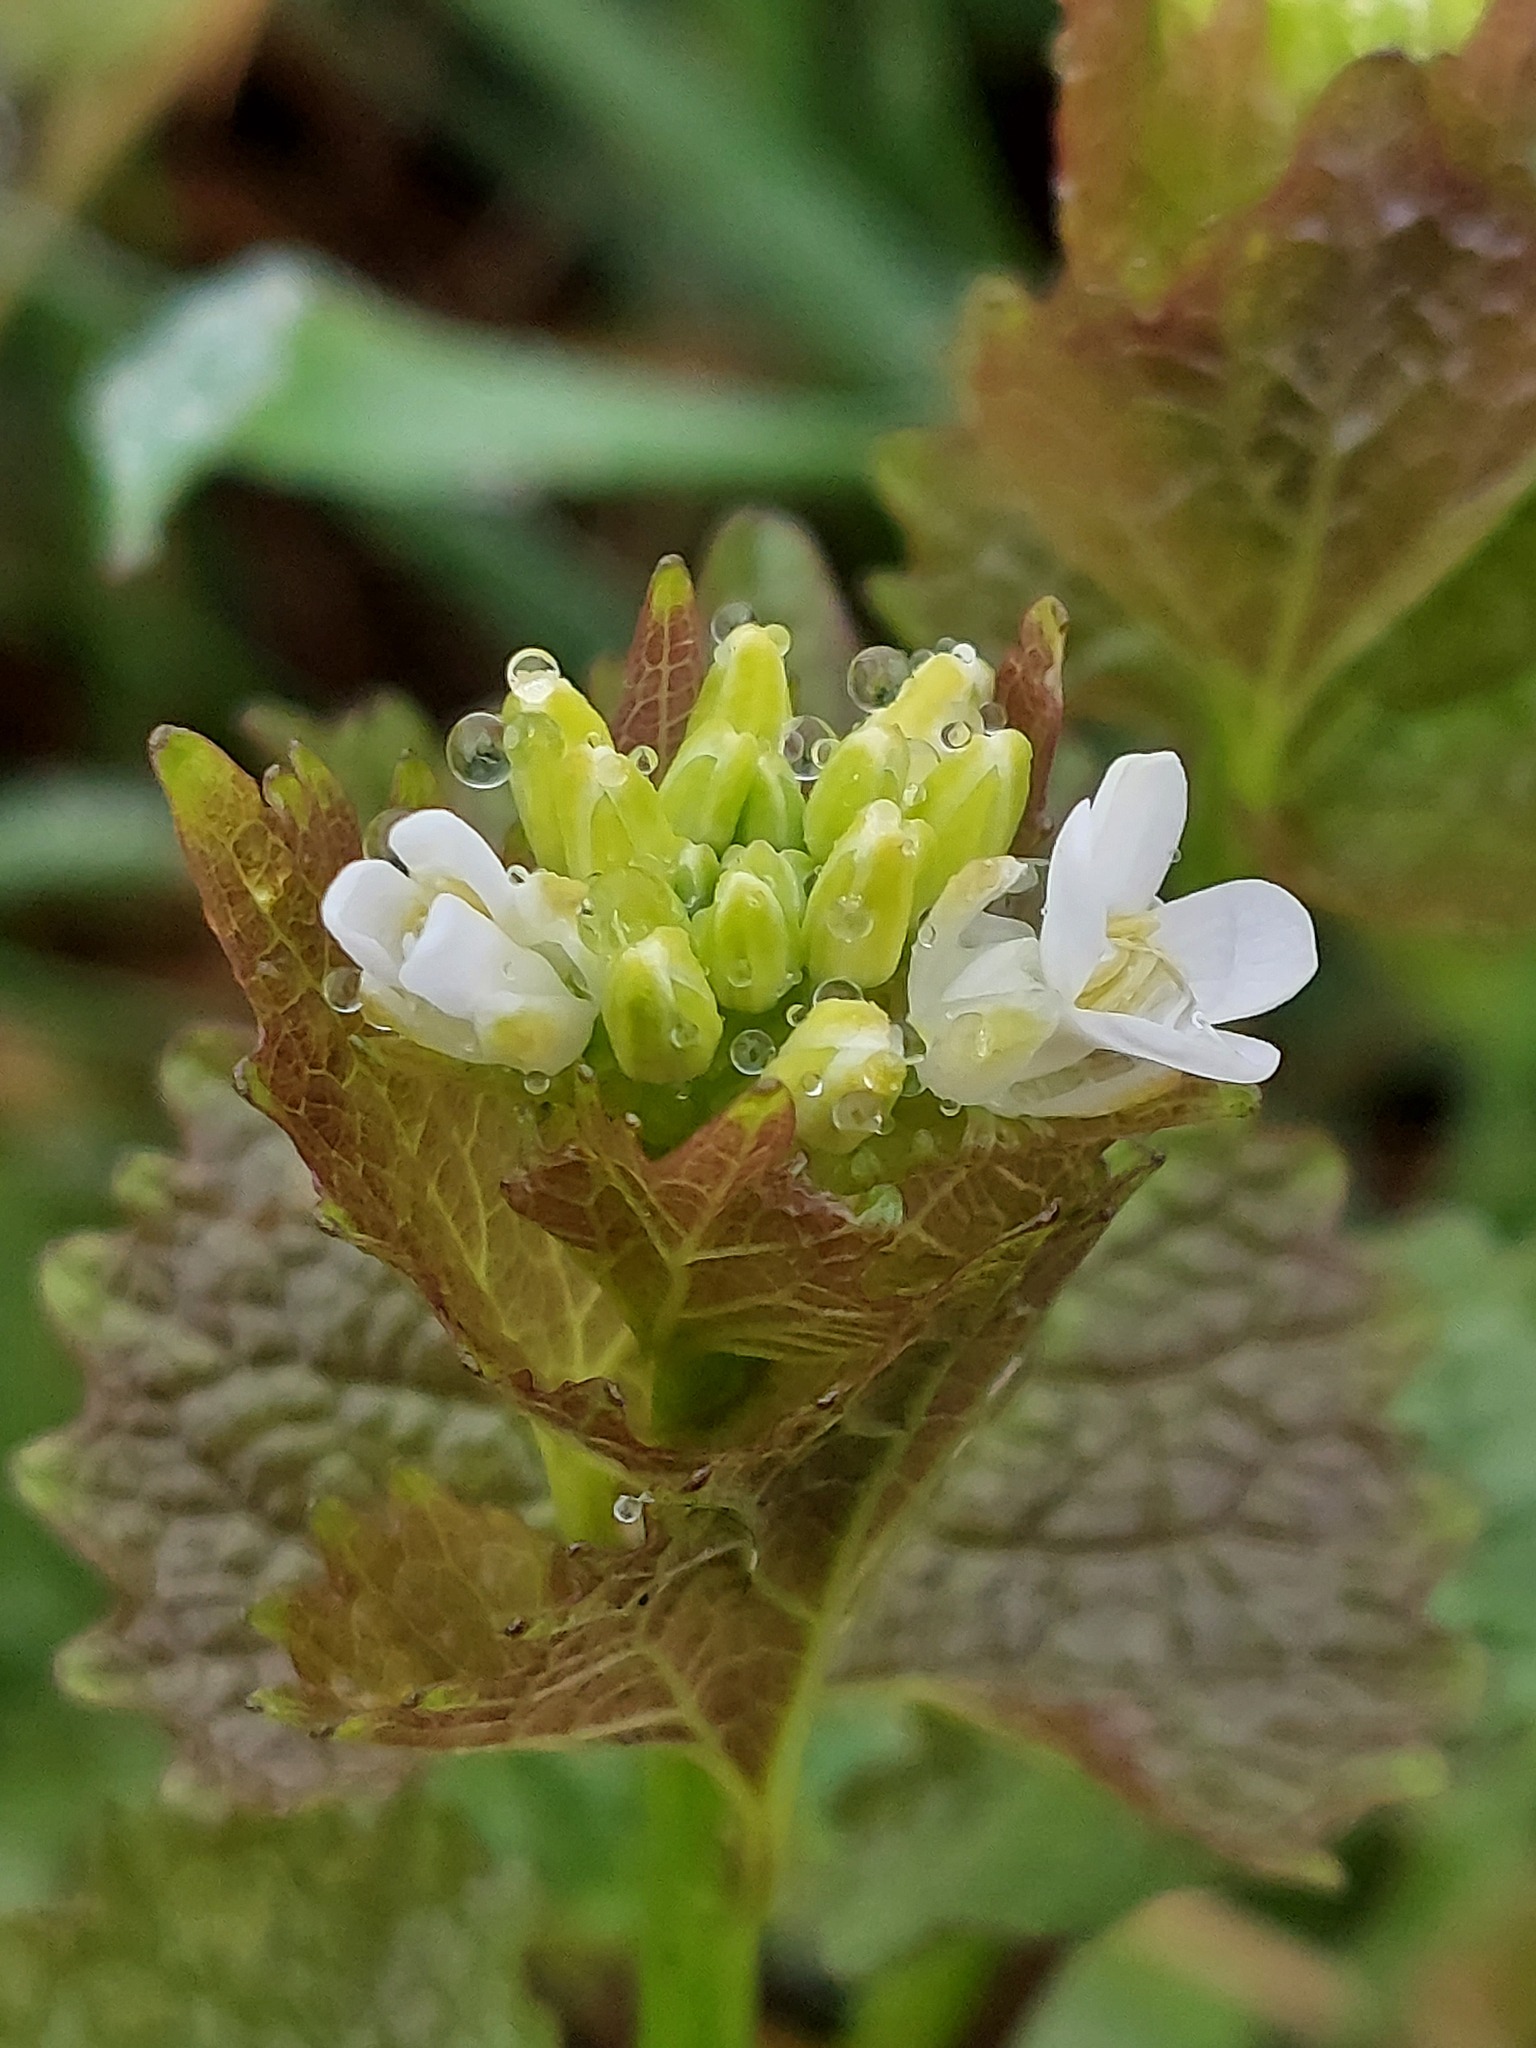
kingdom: Plantae
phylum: Tracheophyta
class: Magnoliopsida
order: Brassicales
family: Brassicaceae
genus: Alliaria
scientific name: Alliaria petiolata
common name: Garlic mustard
